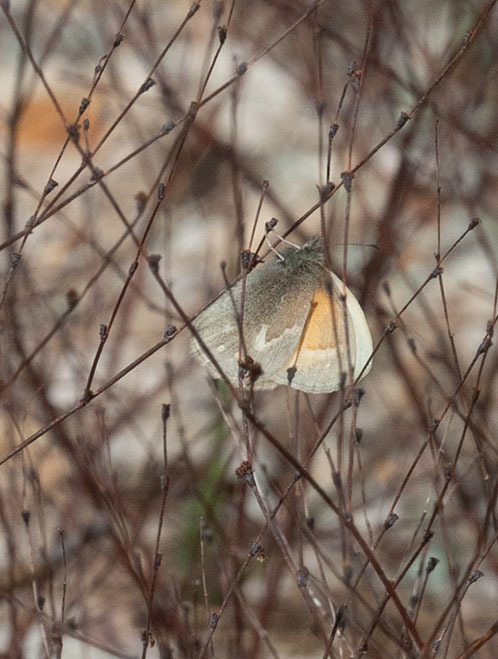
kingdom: Animalia
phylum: Arthropoda
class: Insecta
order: Lepidoptera
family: Nymphalidae
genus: Coenonympha
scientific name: Coenonympha california
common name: Common ringlet
